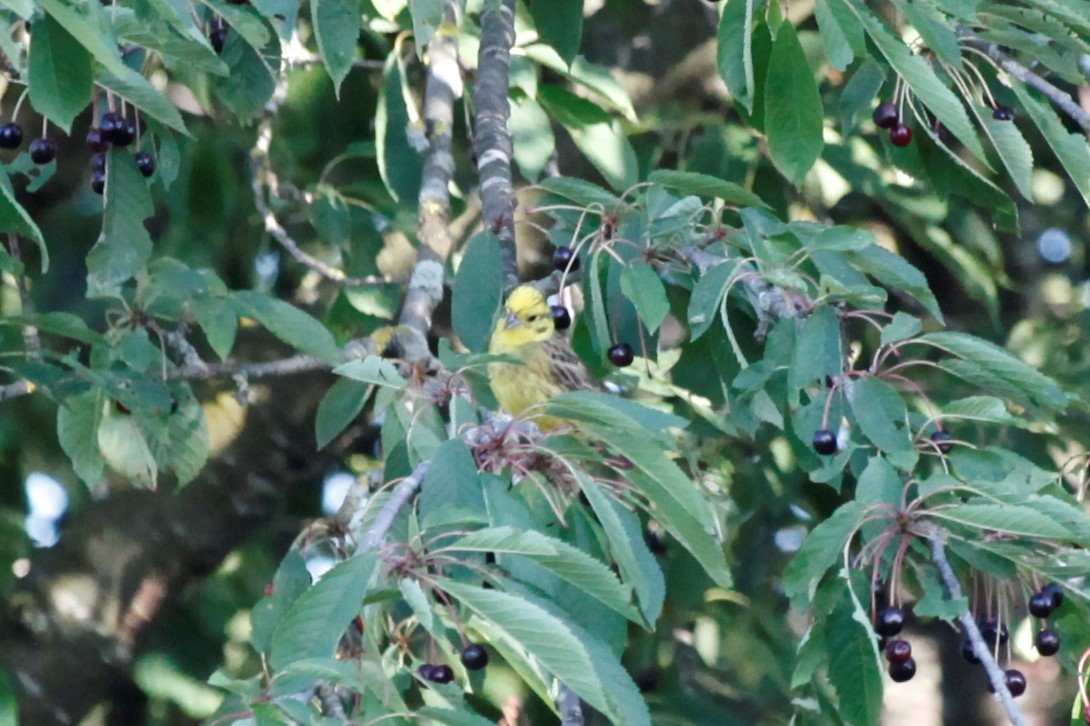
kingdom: Animalia
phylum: Chordata
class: Aves
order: Passeriformes
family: Emberizidae
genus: Emberiza
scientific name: Emberiza citrinella
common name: Yellowhammer
